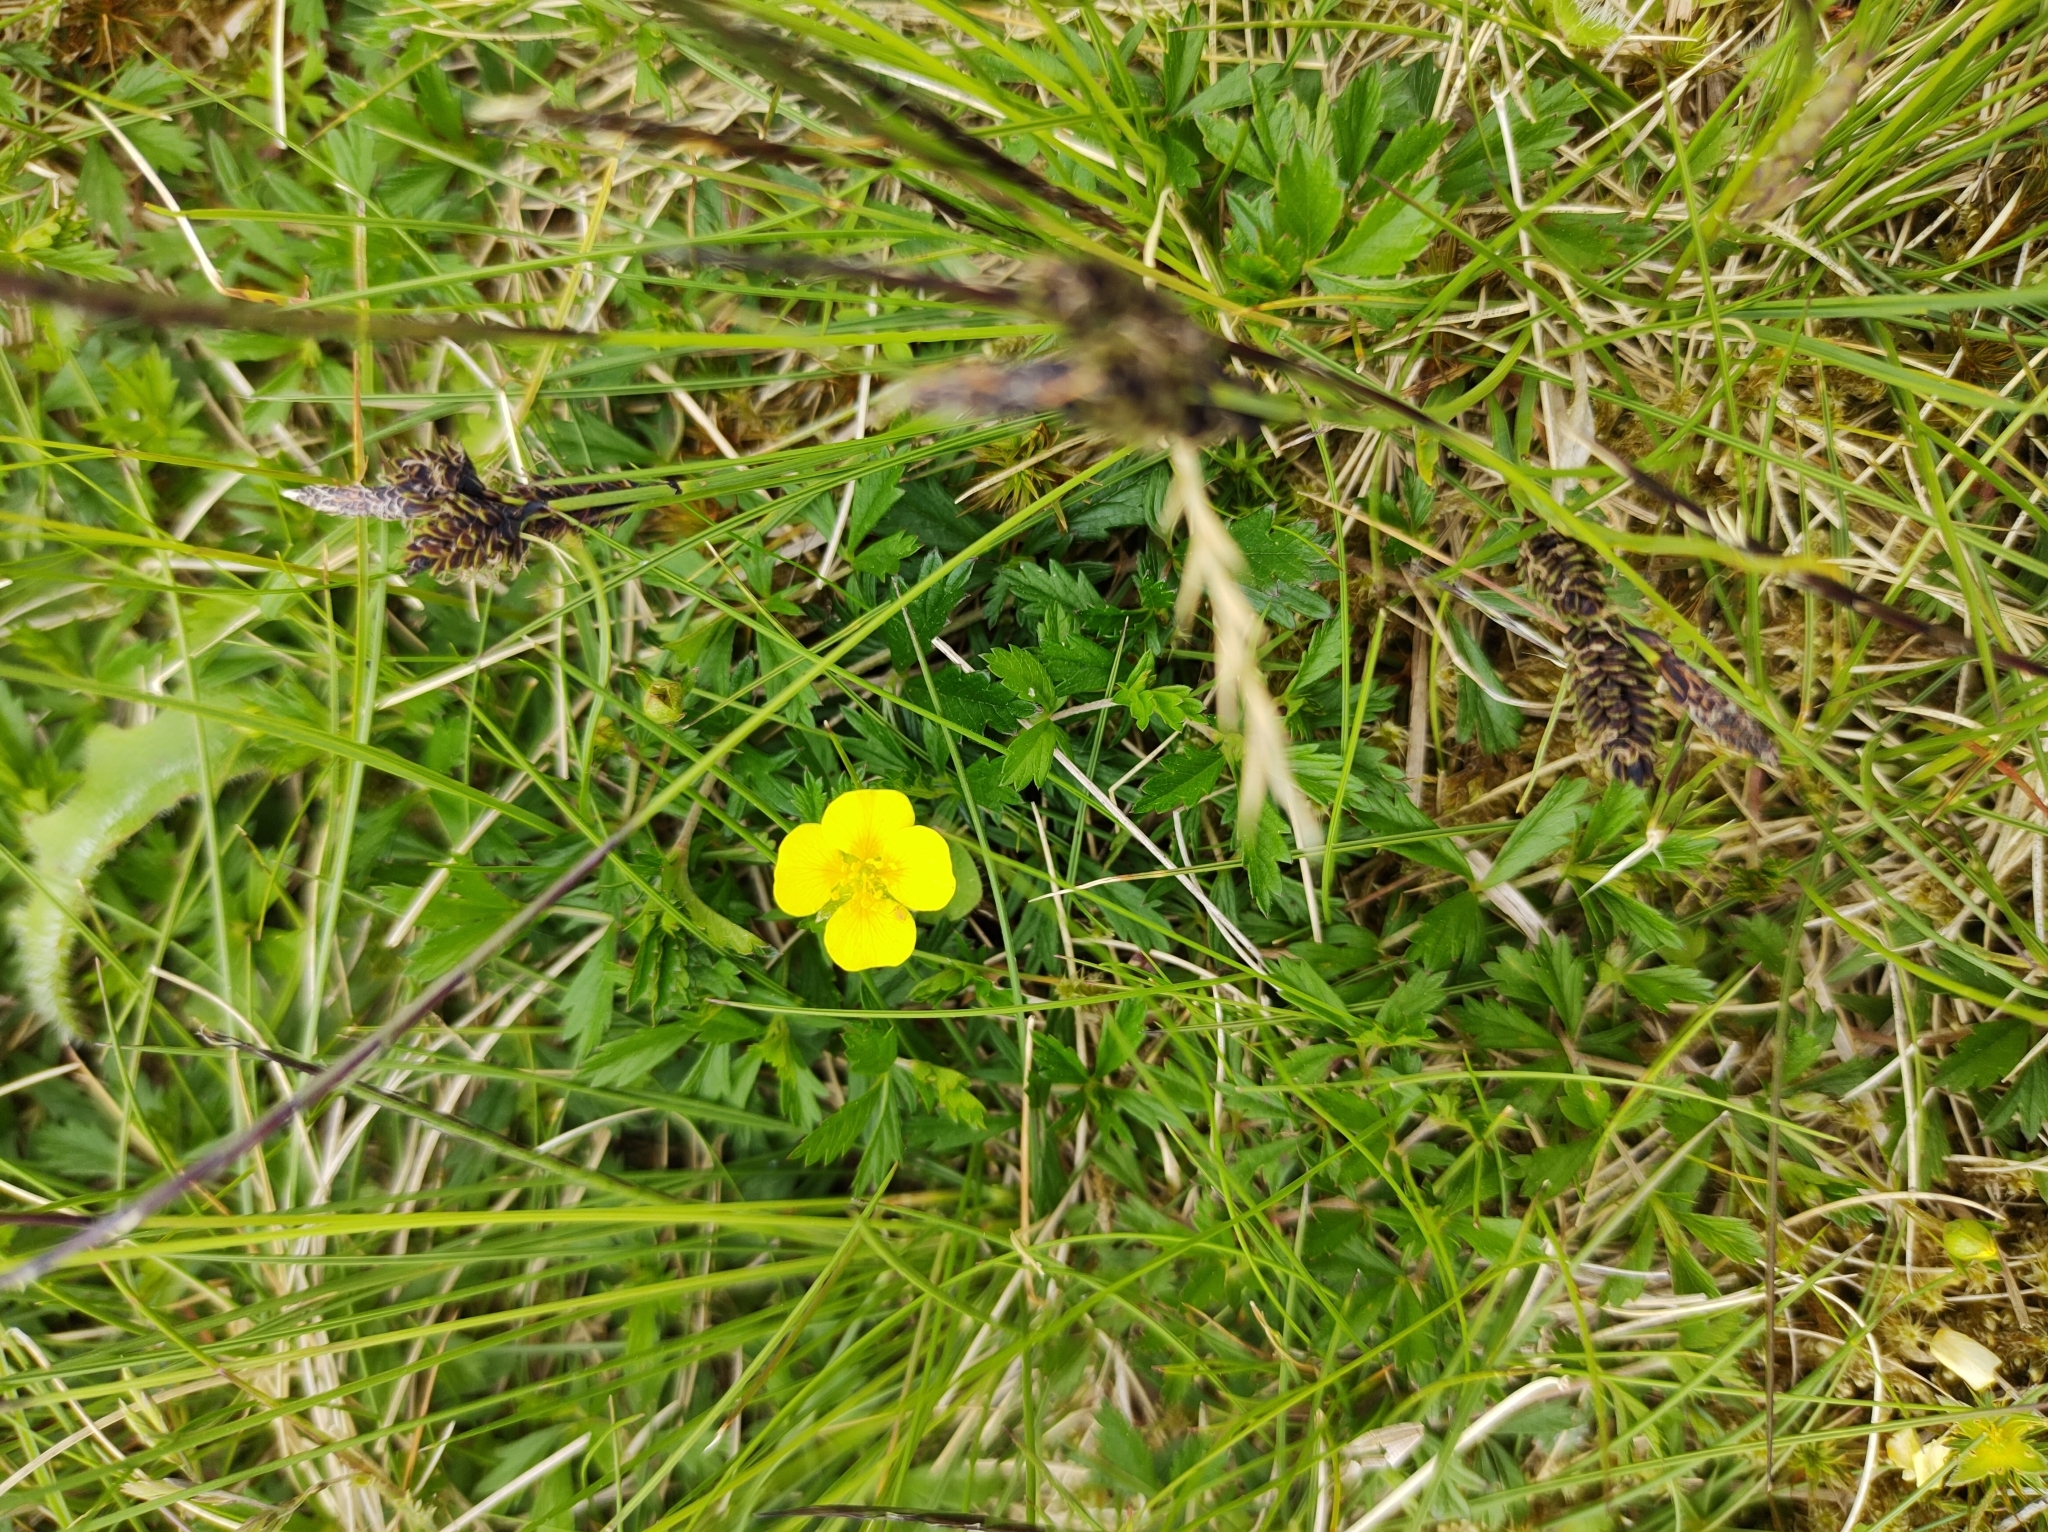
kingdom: Plantae
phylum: Tracheophyta
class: Magnoliopsida
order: Rosales
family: Rosaceae
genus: Potentilla
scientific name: Potentilla erecta
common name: Tormentil
